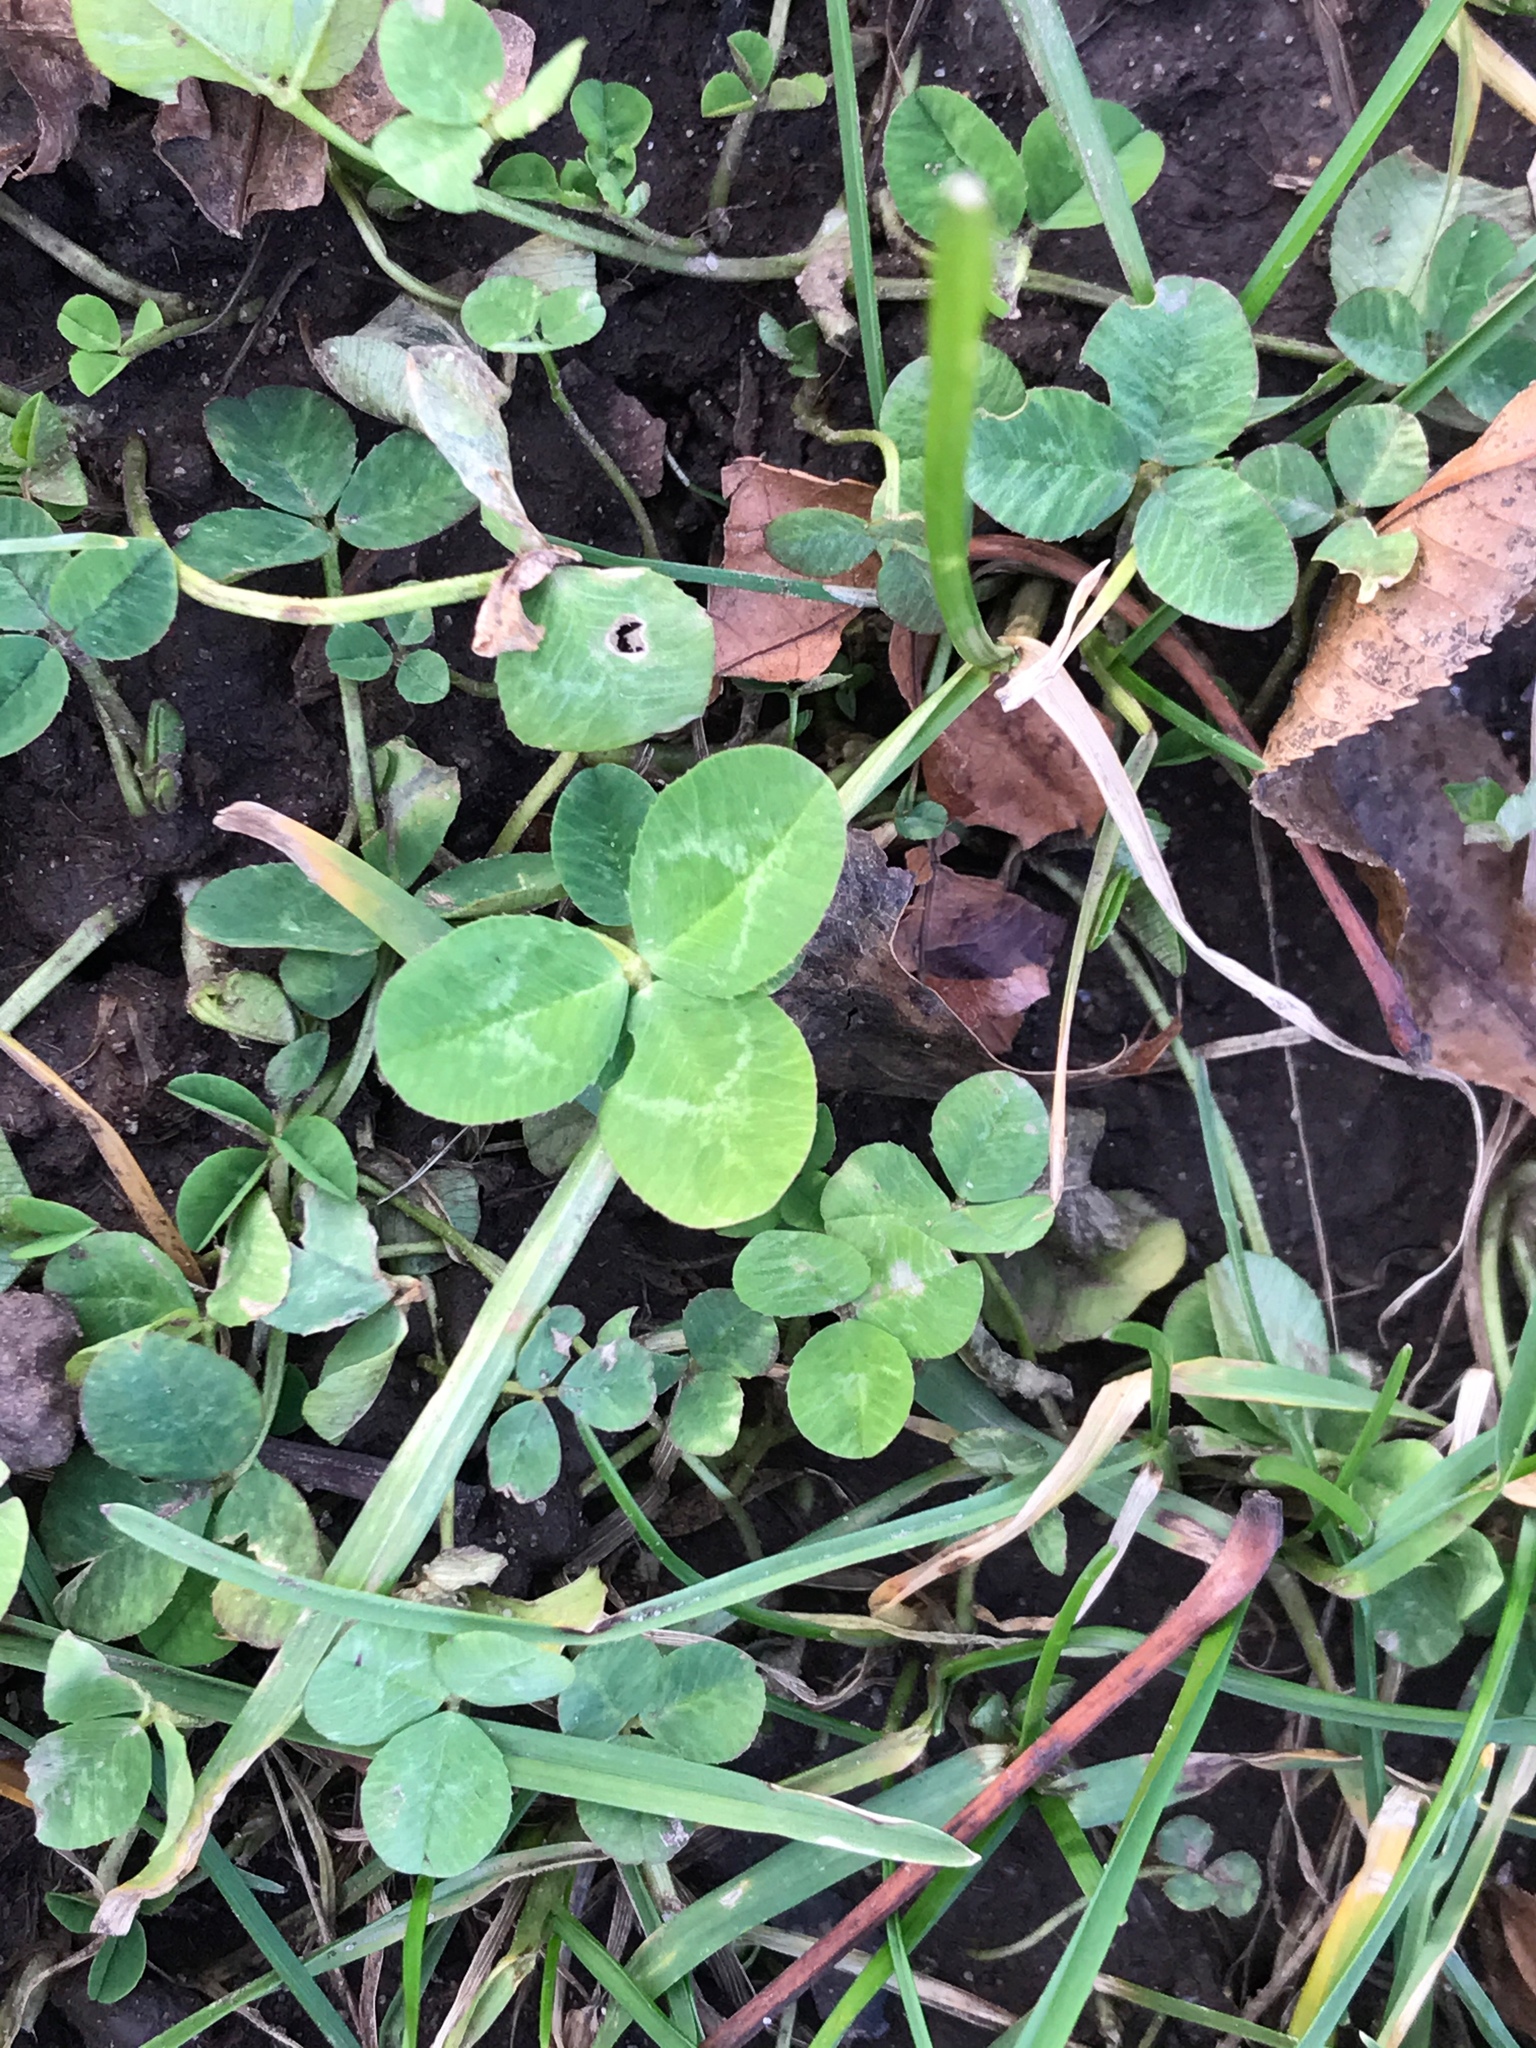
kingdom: Plantae
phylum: Tracheophyta
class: Magnoliopsida
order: Fabales
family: Fabaceae
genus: Trifolium
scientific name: Trifolium repens
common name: White clover
